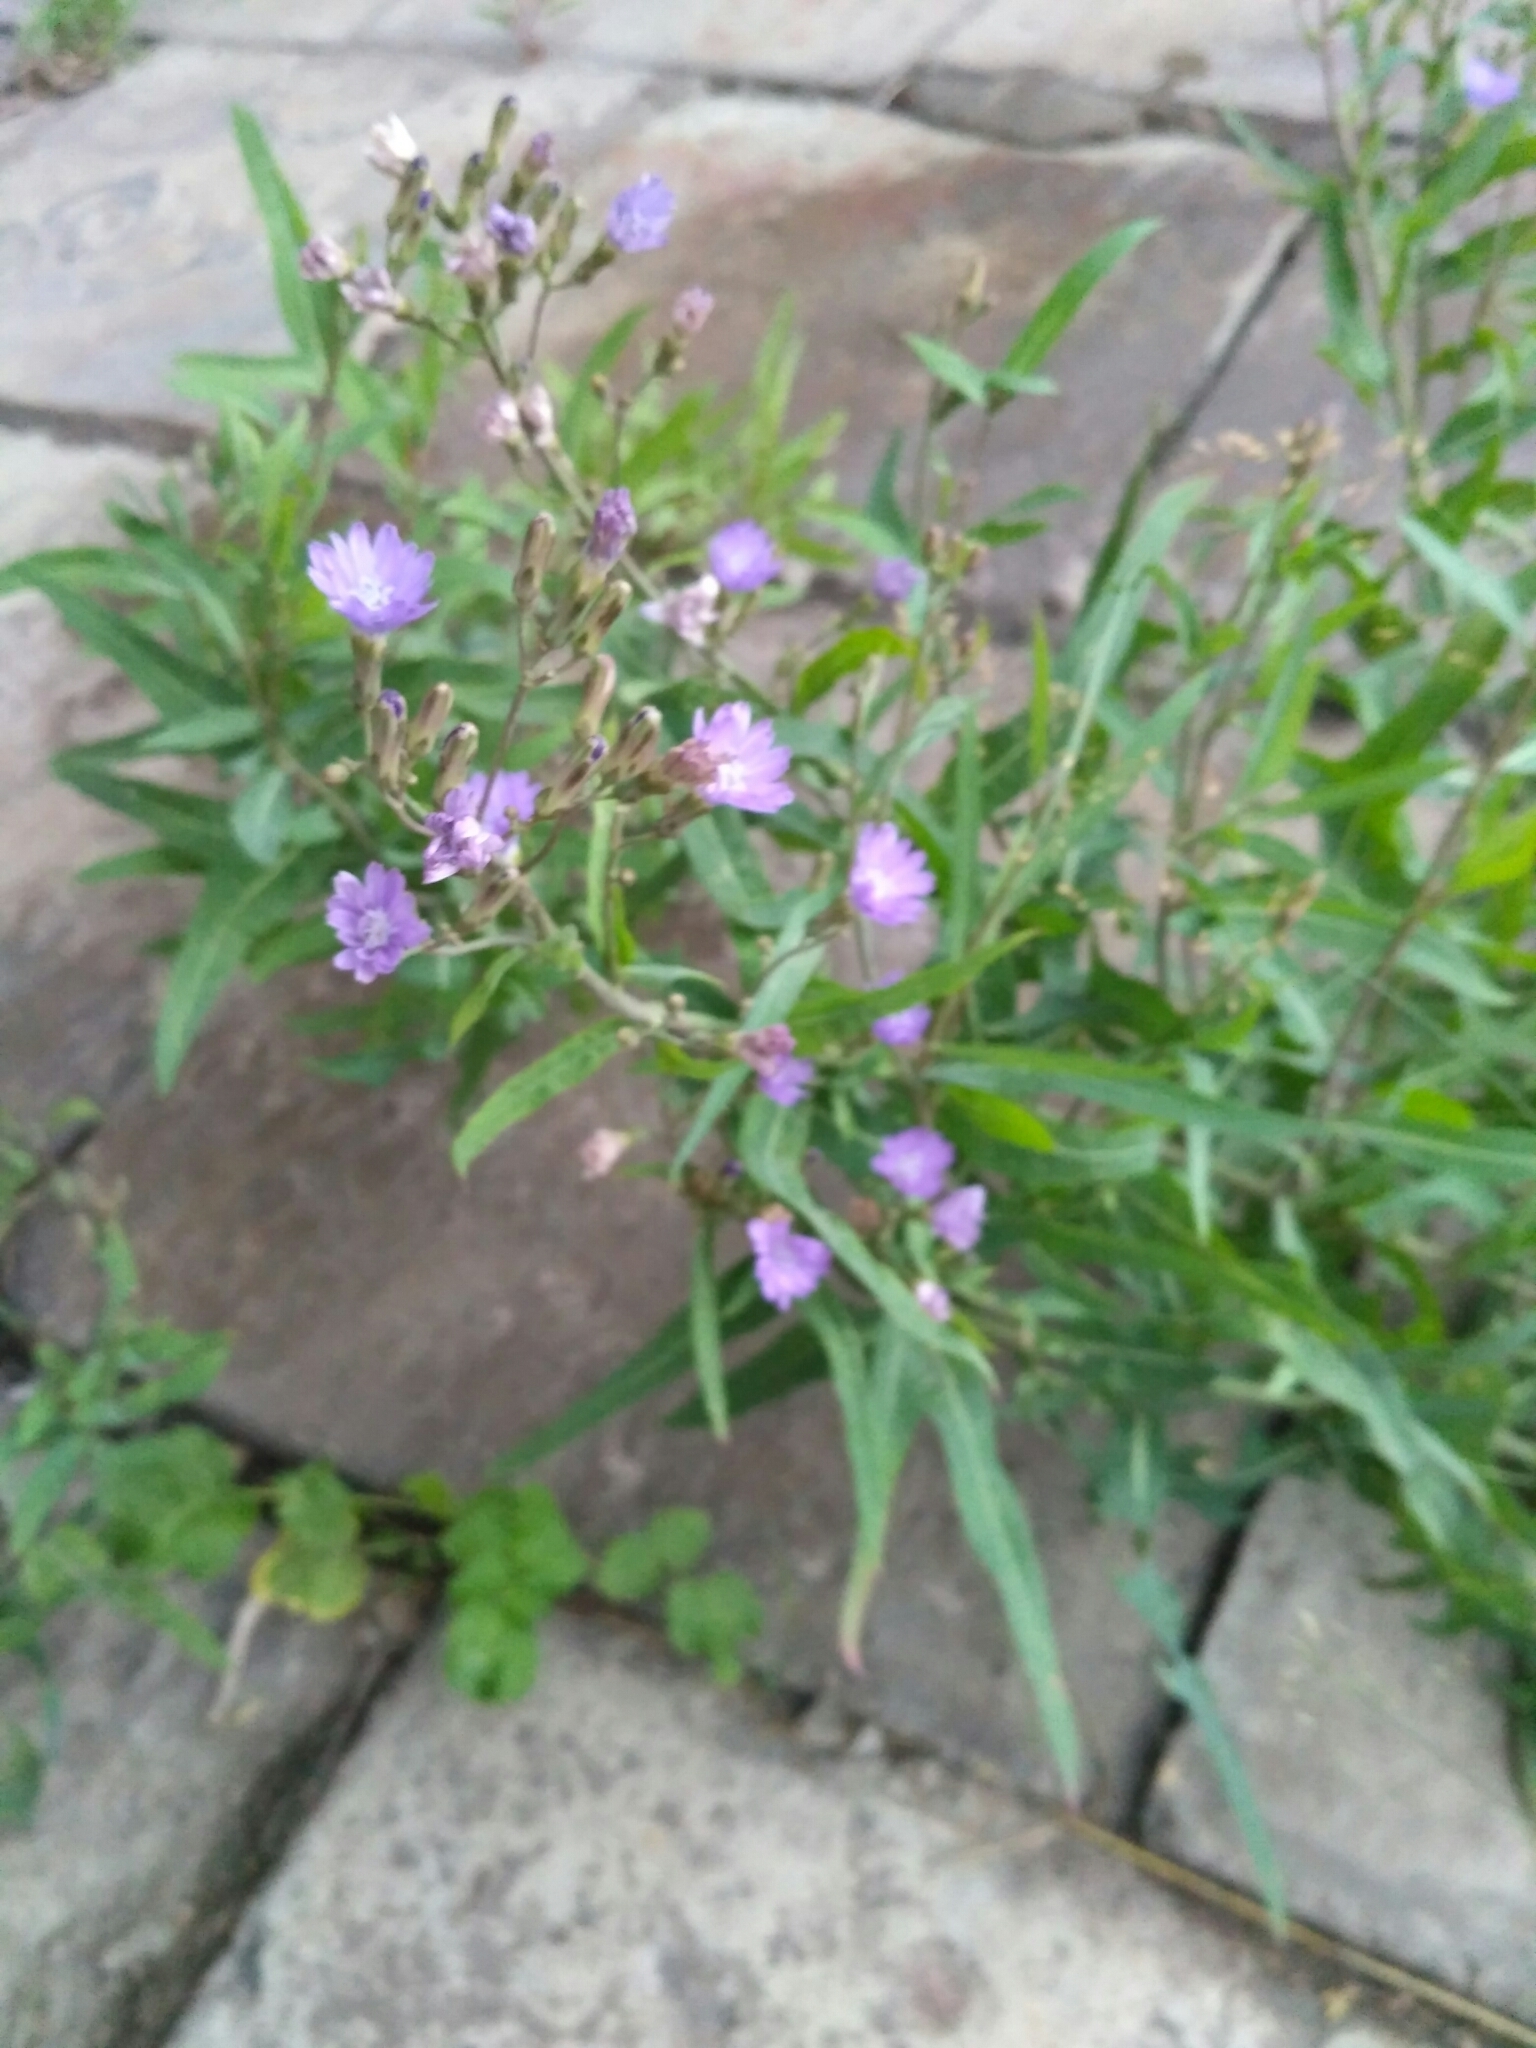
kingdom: Plantae
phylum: Tracheophyta
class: Magnoliopsida
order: Asterales
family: Asteraceae
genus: Lactuca
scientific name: Lactuca tatarica
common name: Blue lettuce
